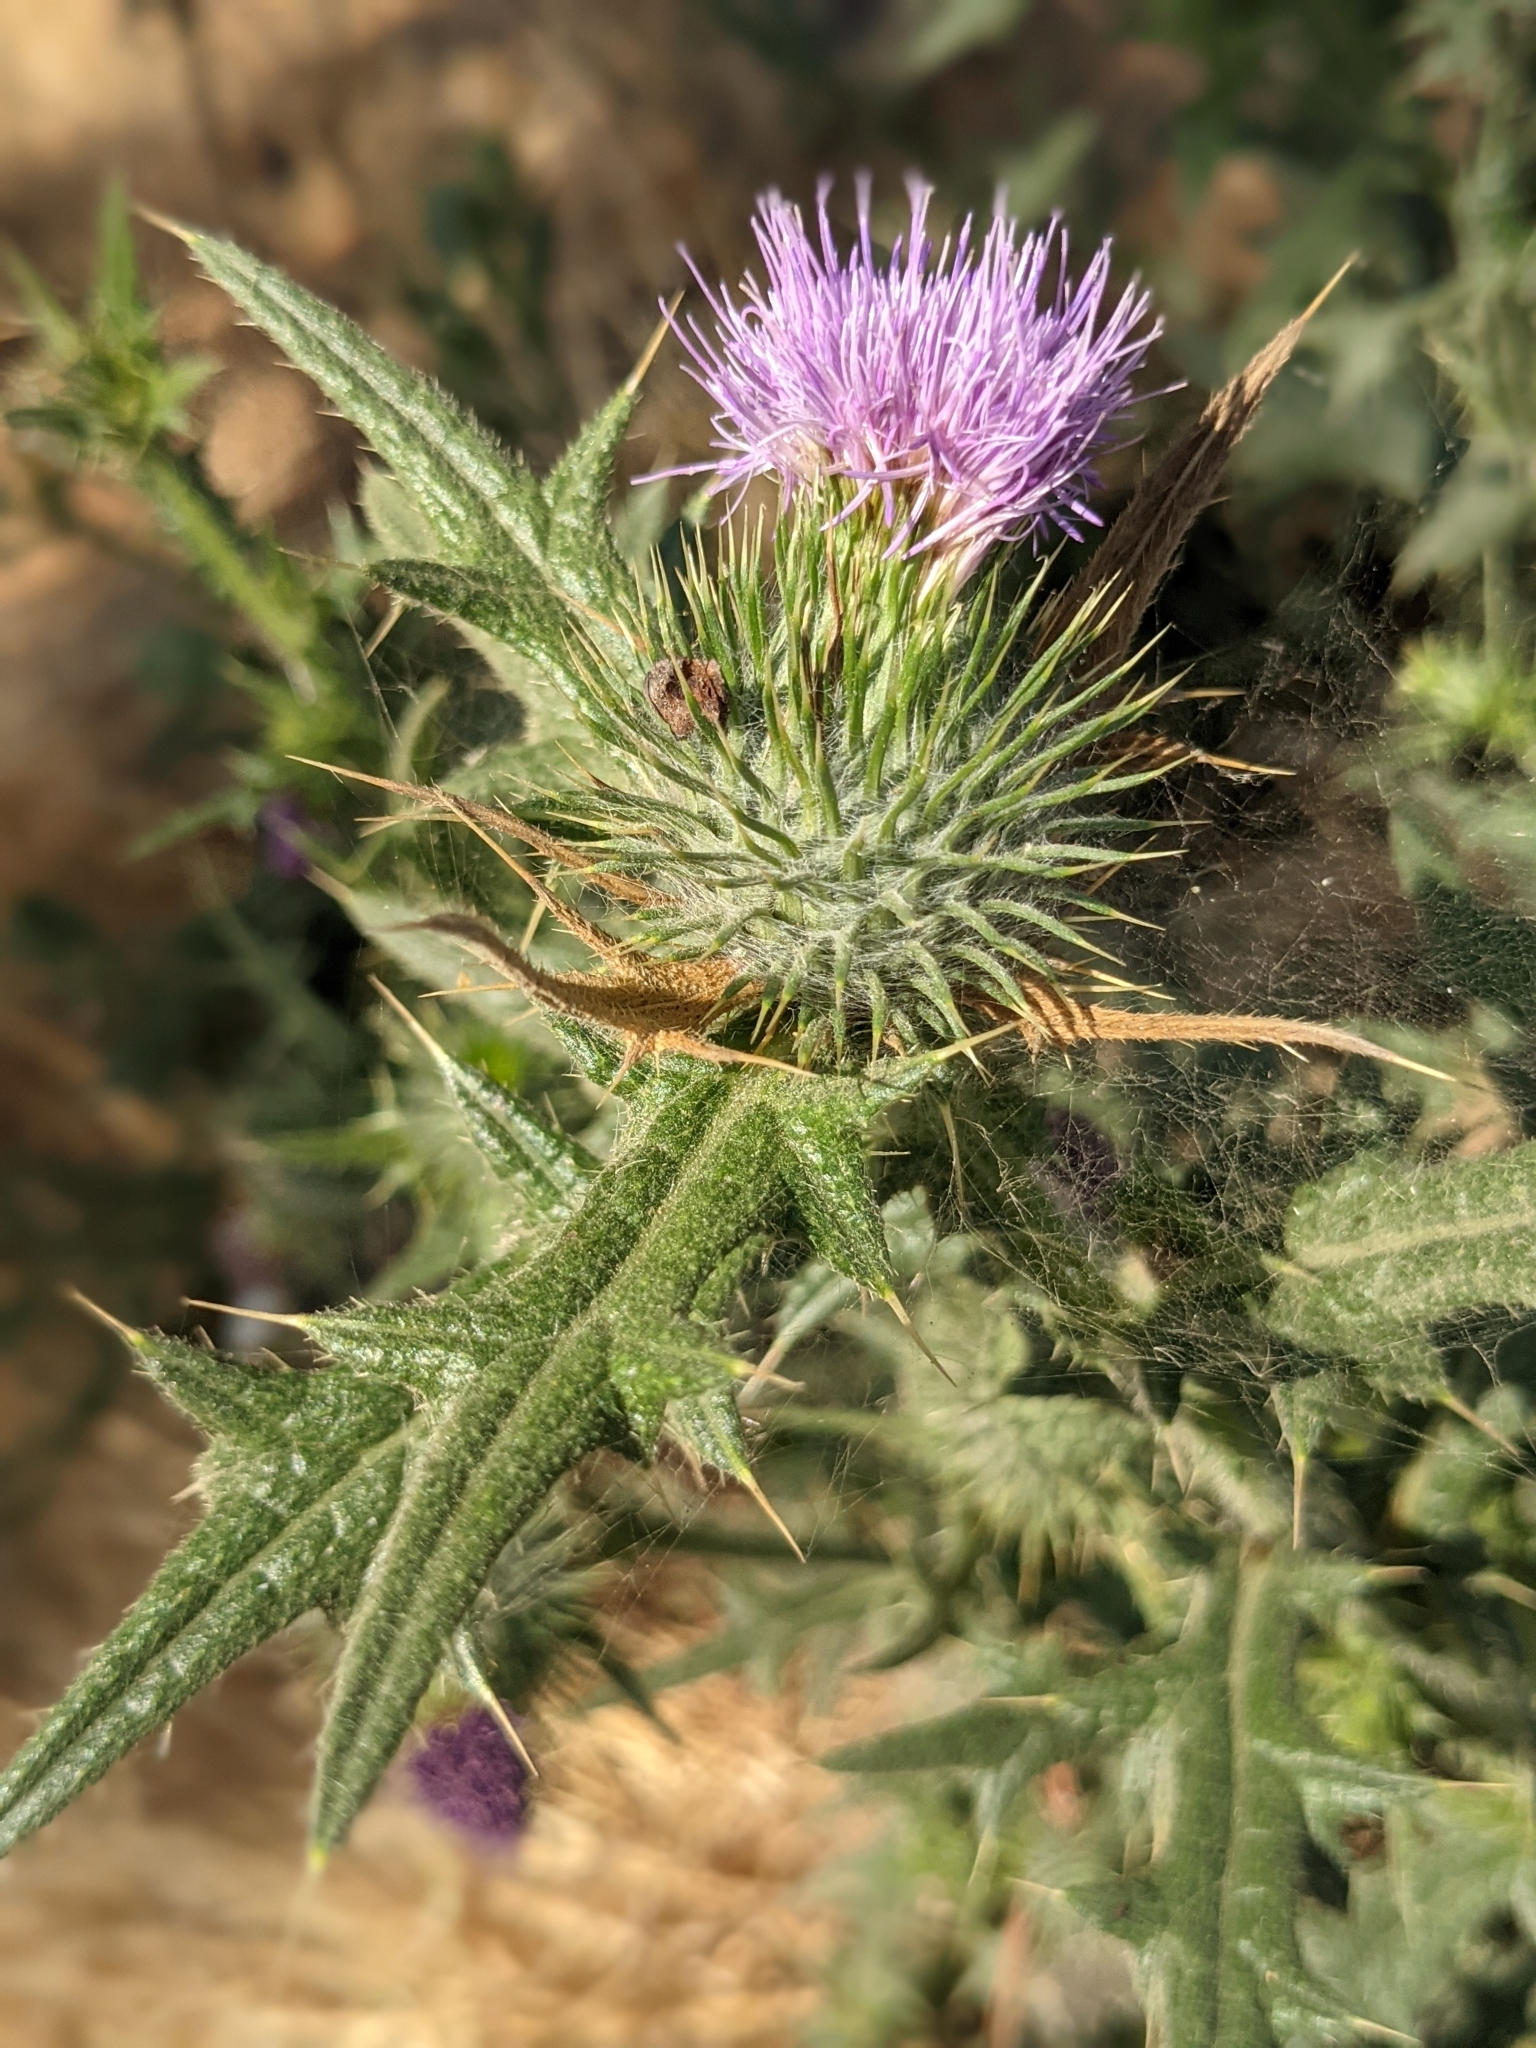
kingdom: Plantae
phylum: Tracheophyta
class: Magnoliopsida
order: Asterales
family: Asteraceae
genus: Cirsium
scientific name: Cirsium vulgare
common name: Bull thistle
